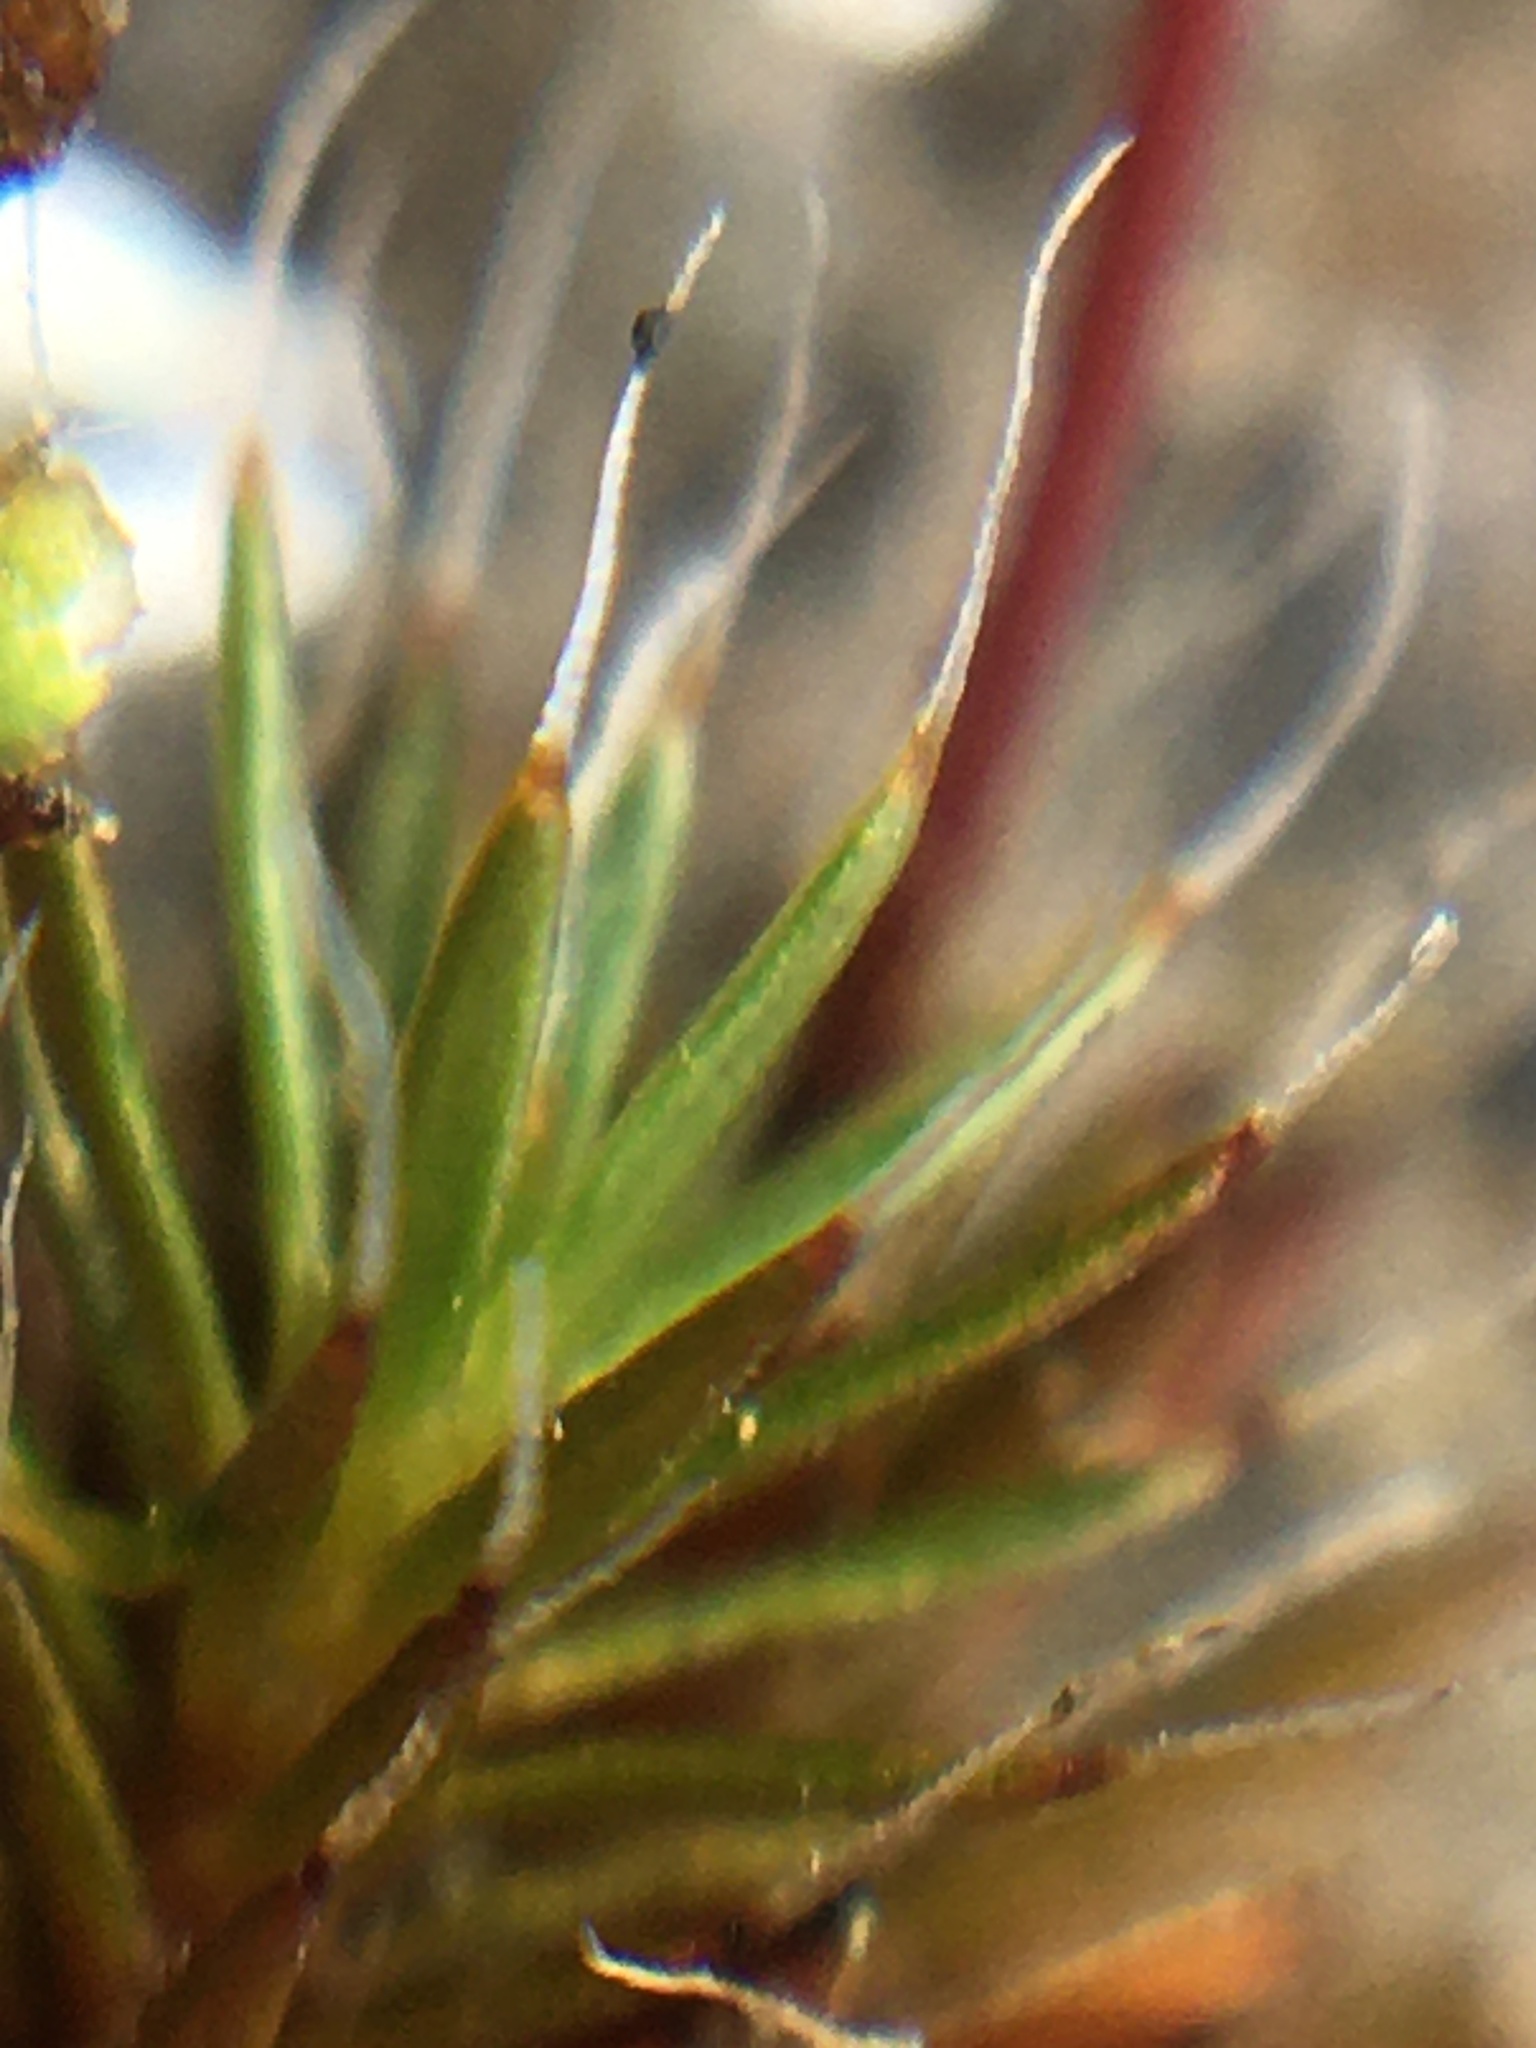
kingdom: Plantae
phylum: Bryophyta
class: Polytrichopsida
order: Polytrichales
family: Polytrichaceae
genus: Polytrichum
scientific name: Polytrichum piliferum
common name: Bristly haircap
